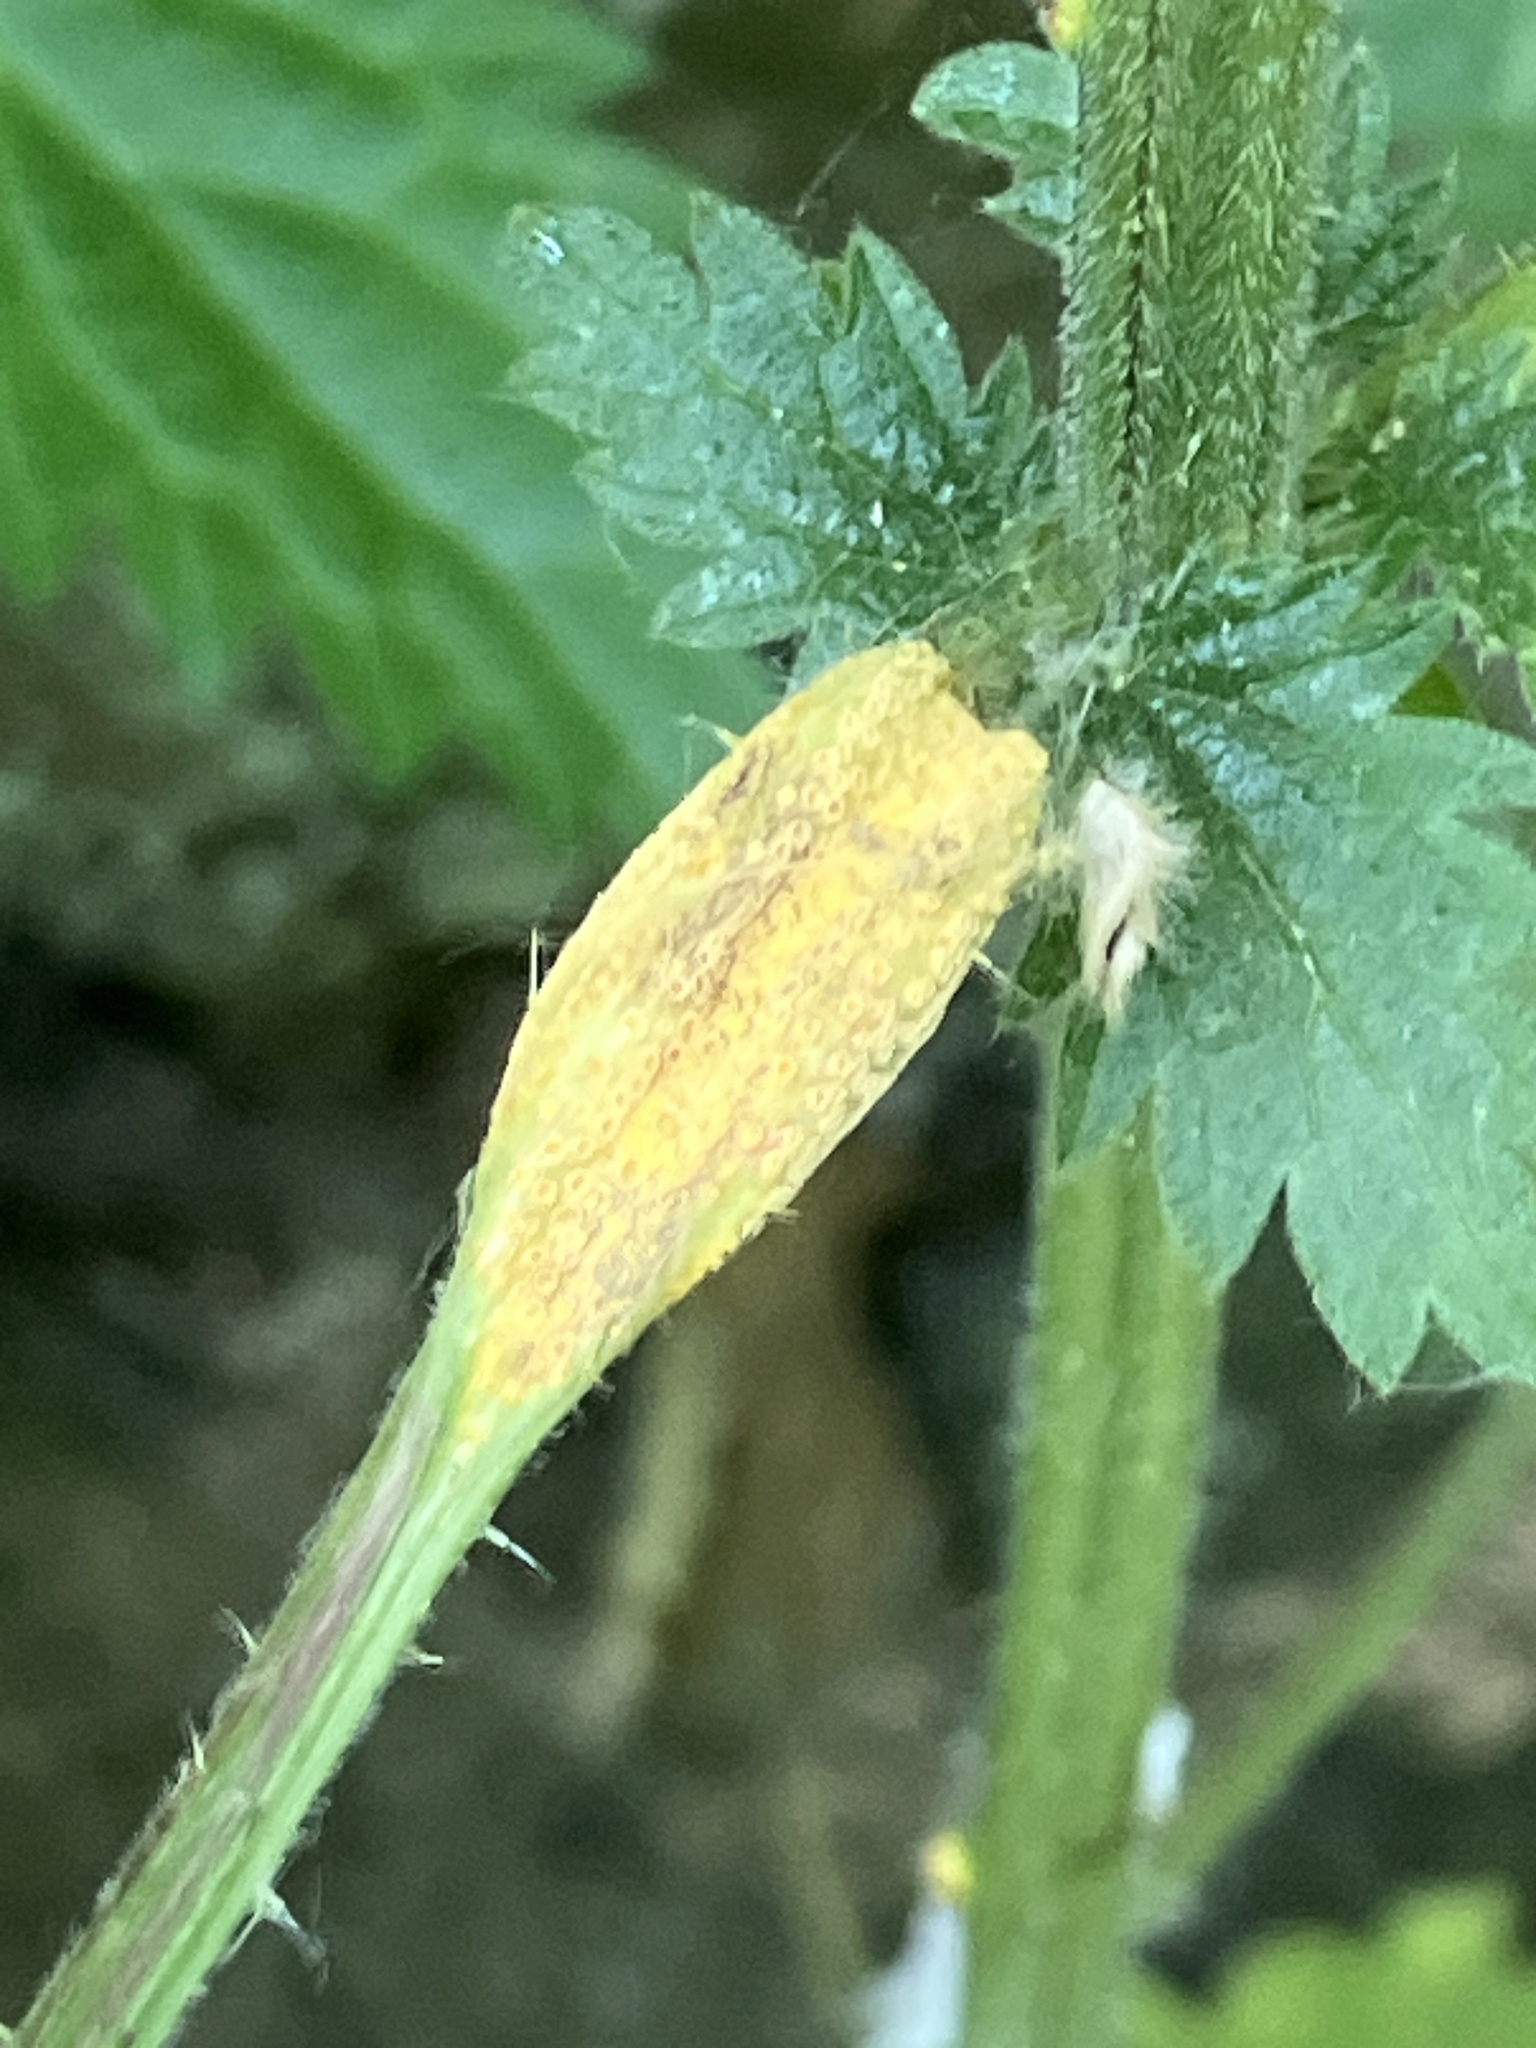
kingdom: Fungi
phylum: Basidiomycota
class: Pucciniomycetes
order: Pucciniales
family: Pucciniaceae
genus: Puccinia
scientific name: Puccinia urticata
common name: Nettle clustercup rust fungus
